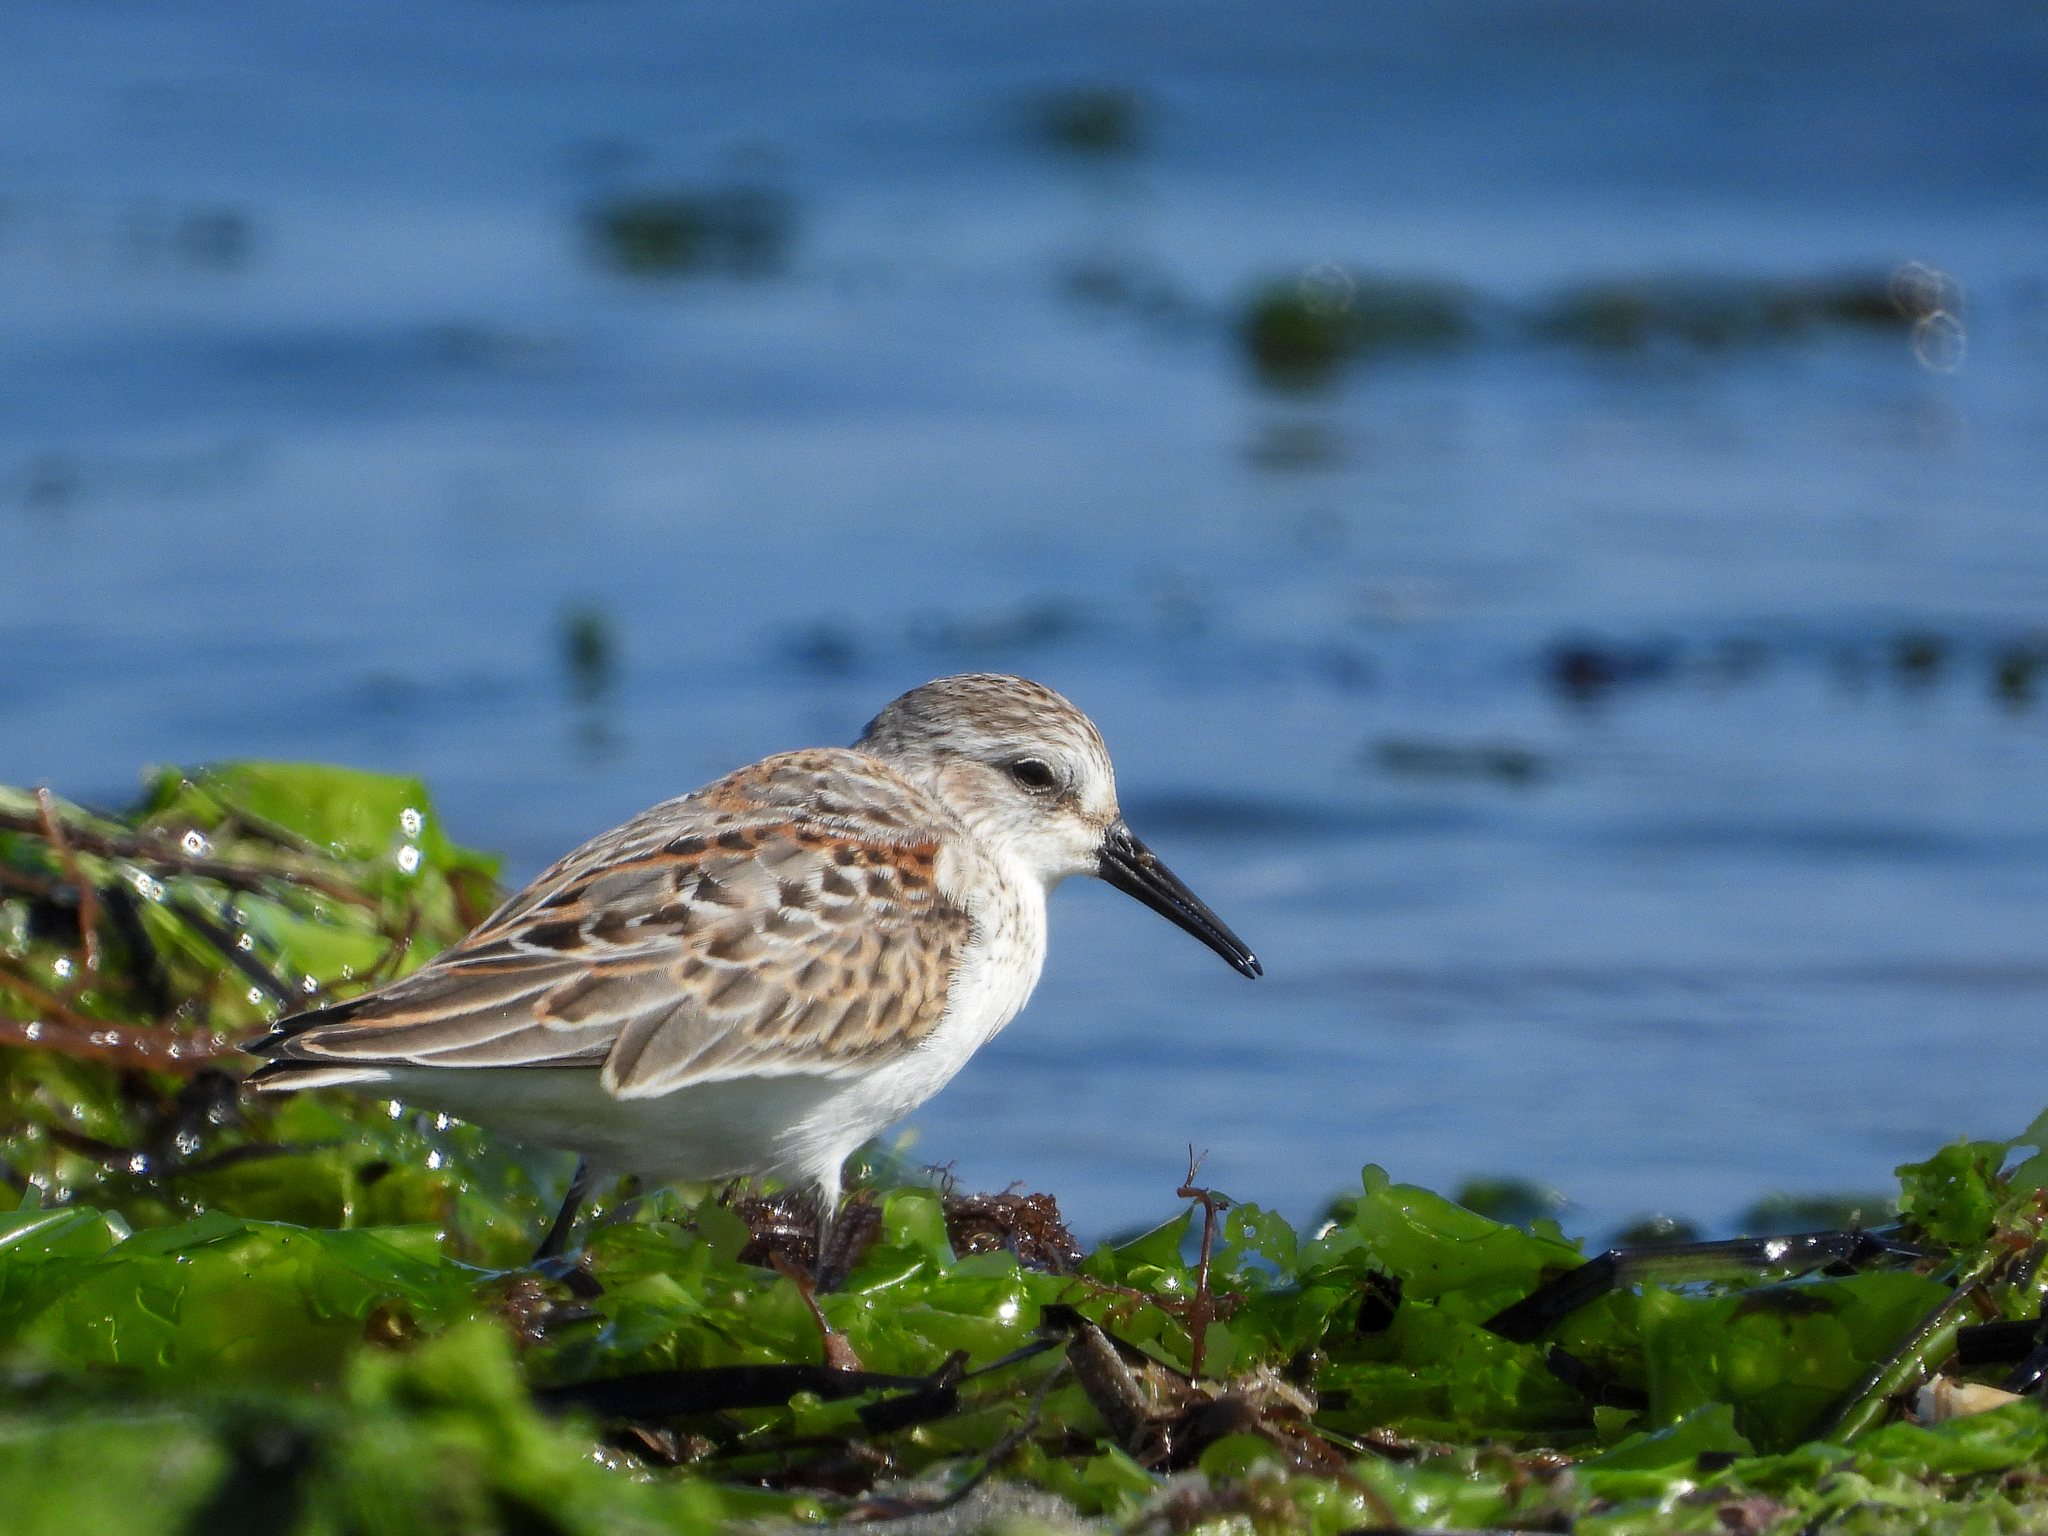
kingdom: Animalia
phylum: Chordata
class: Aves
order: Charadriiformes
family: Scolopacidae
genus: Calidris
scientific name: Calidris mauri
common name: Western sandpiper
